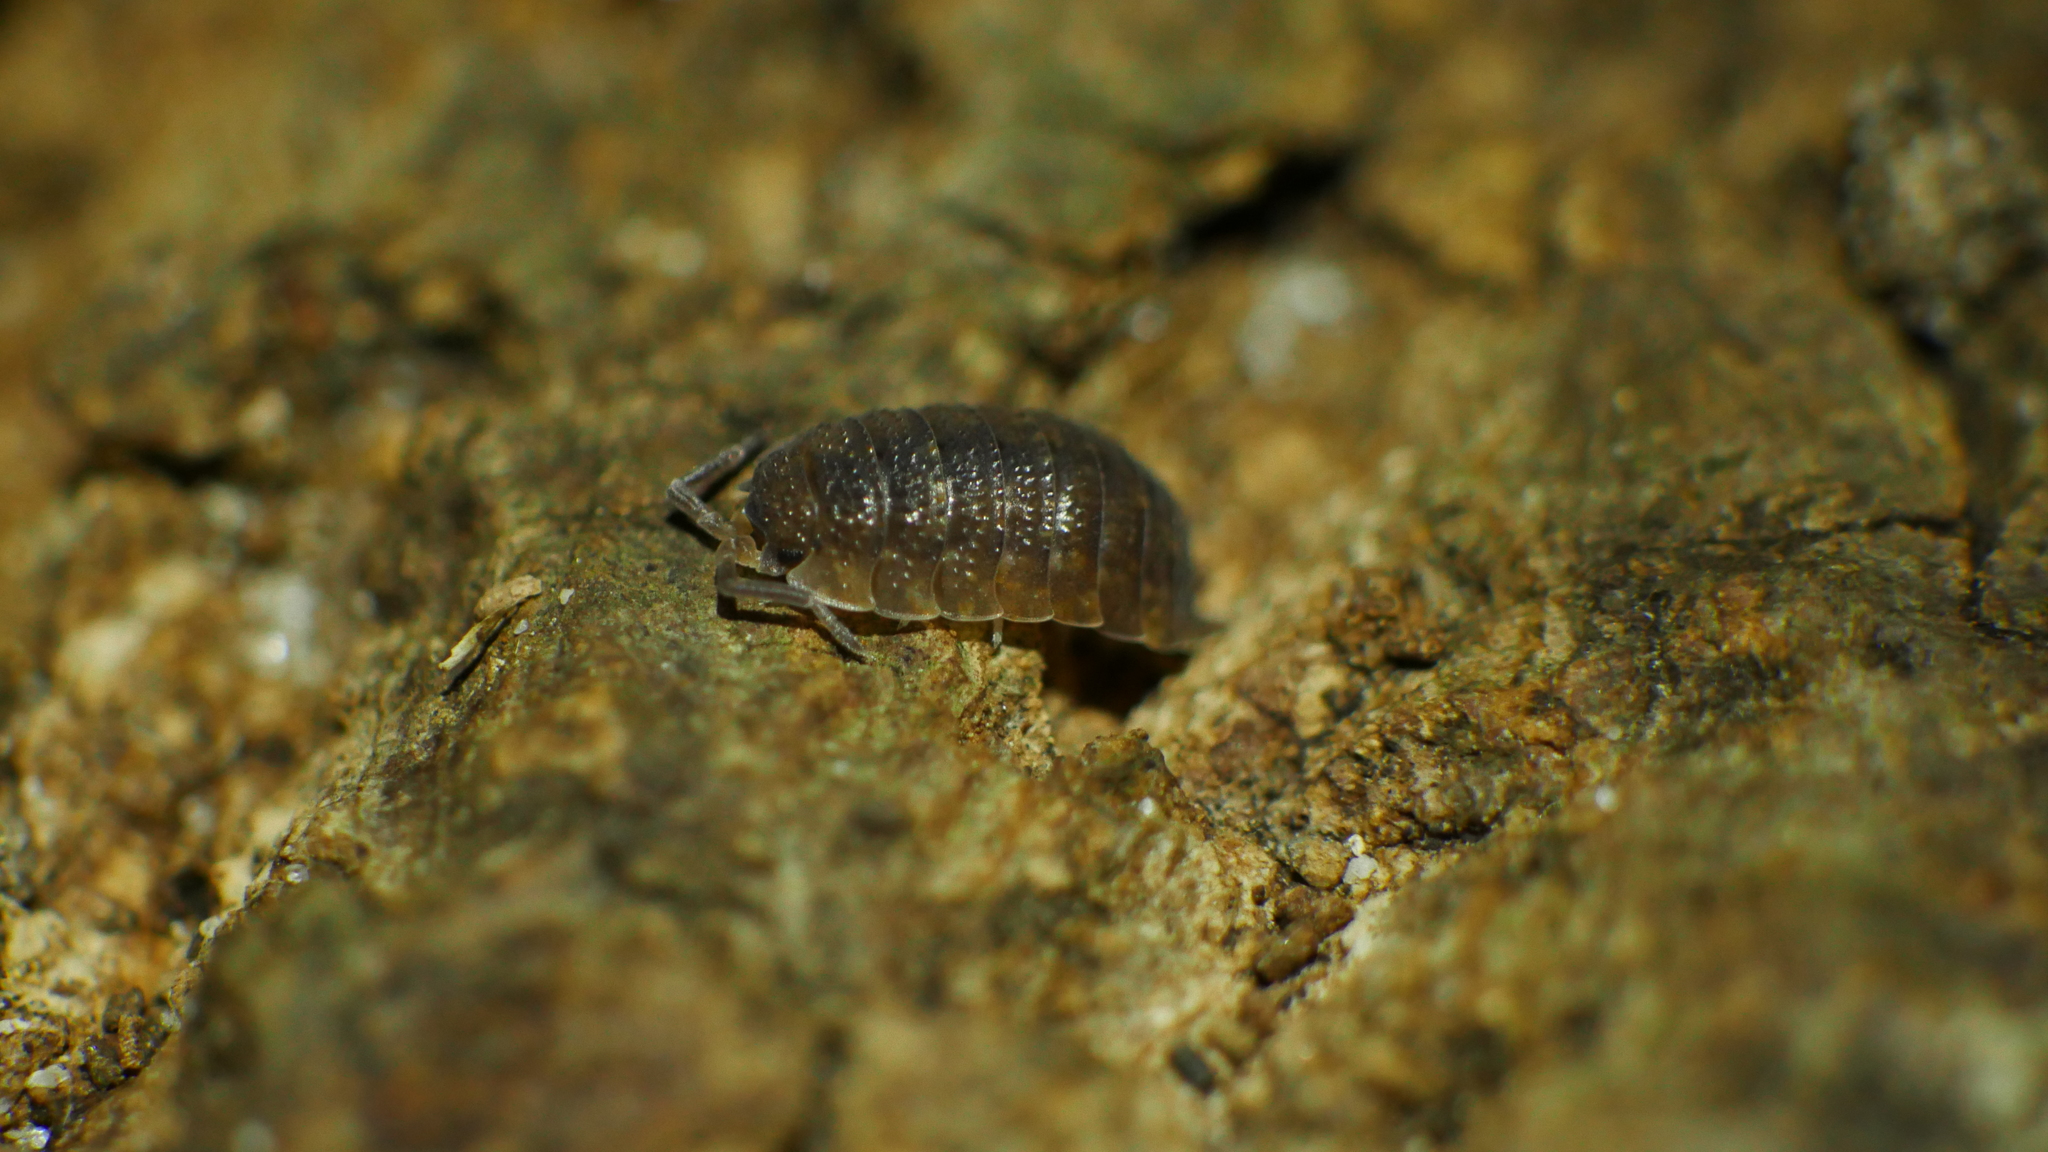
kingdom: Animalia
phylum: Arthropoda
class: Malacostraca
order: Isopoda
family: Porcellionidae
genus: Porcellio
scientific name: Porcellio scaber
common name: Common rough woodlouse
